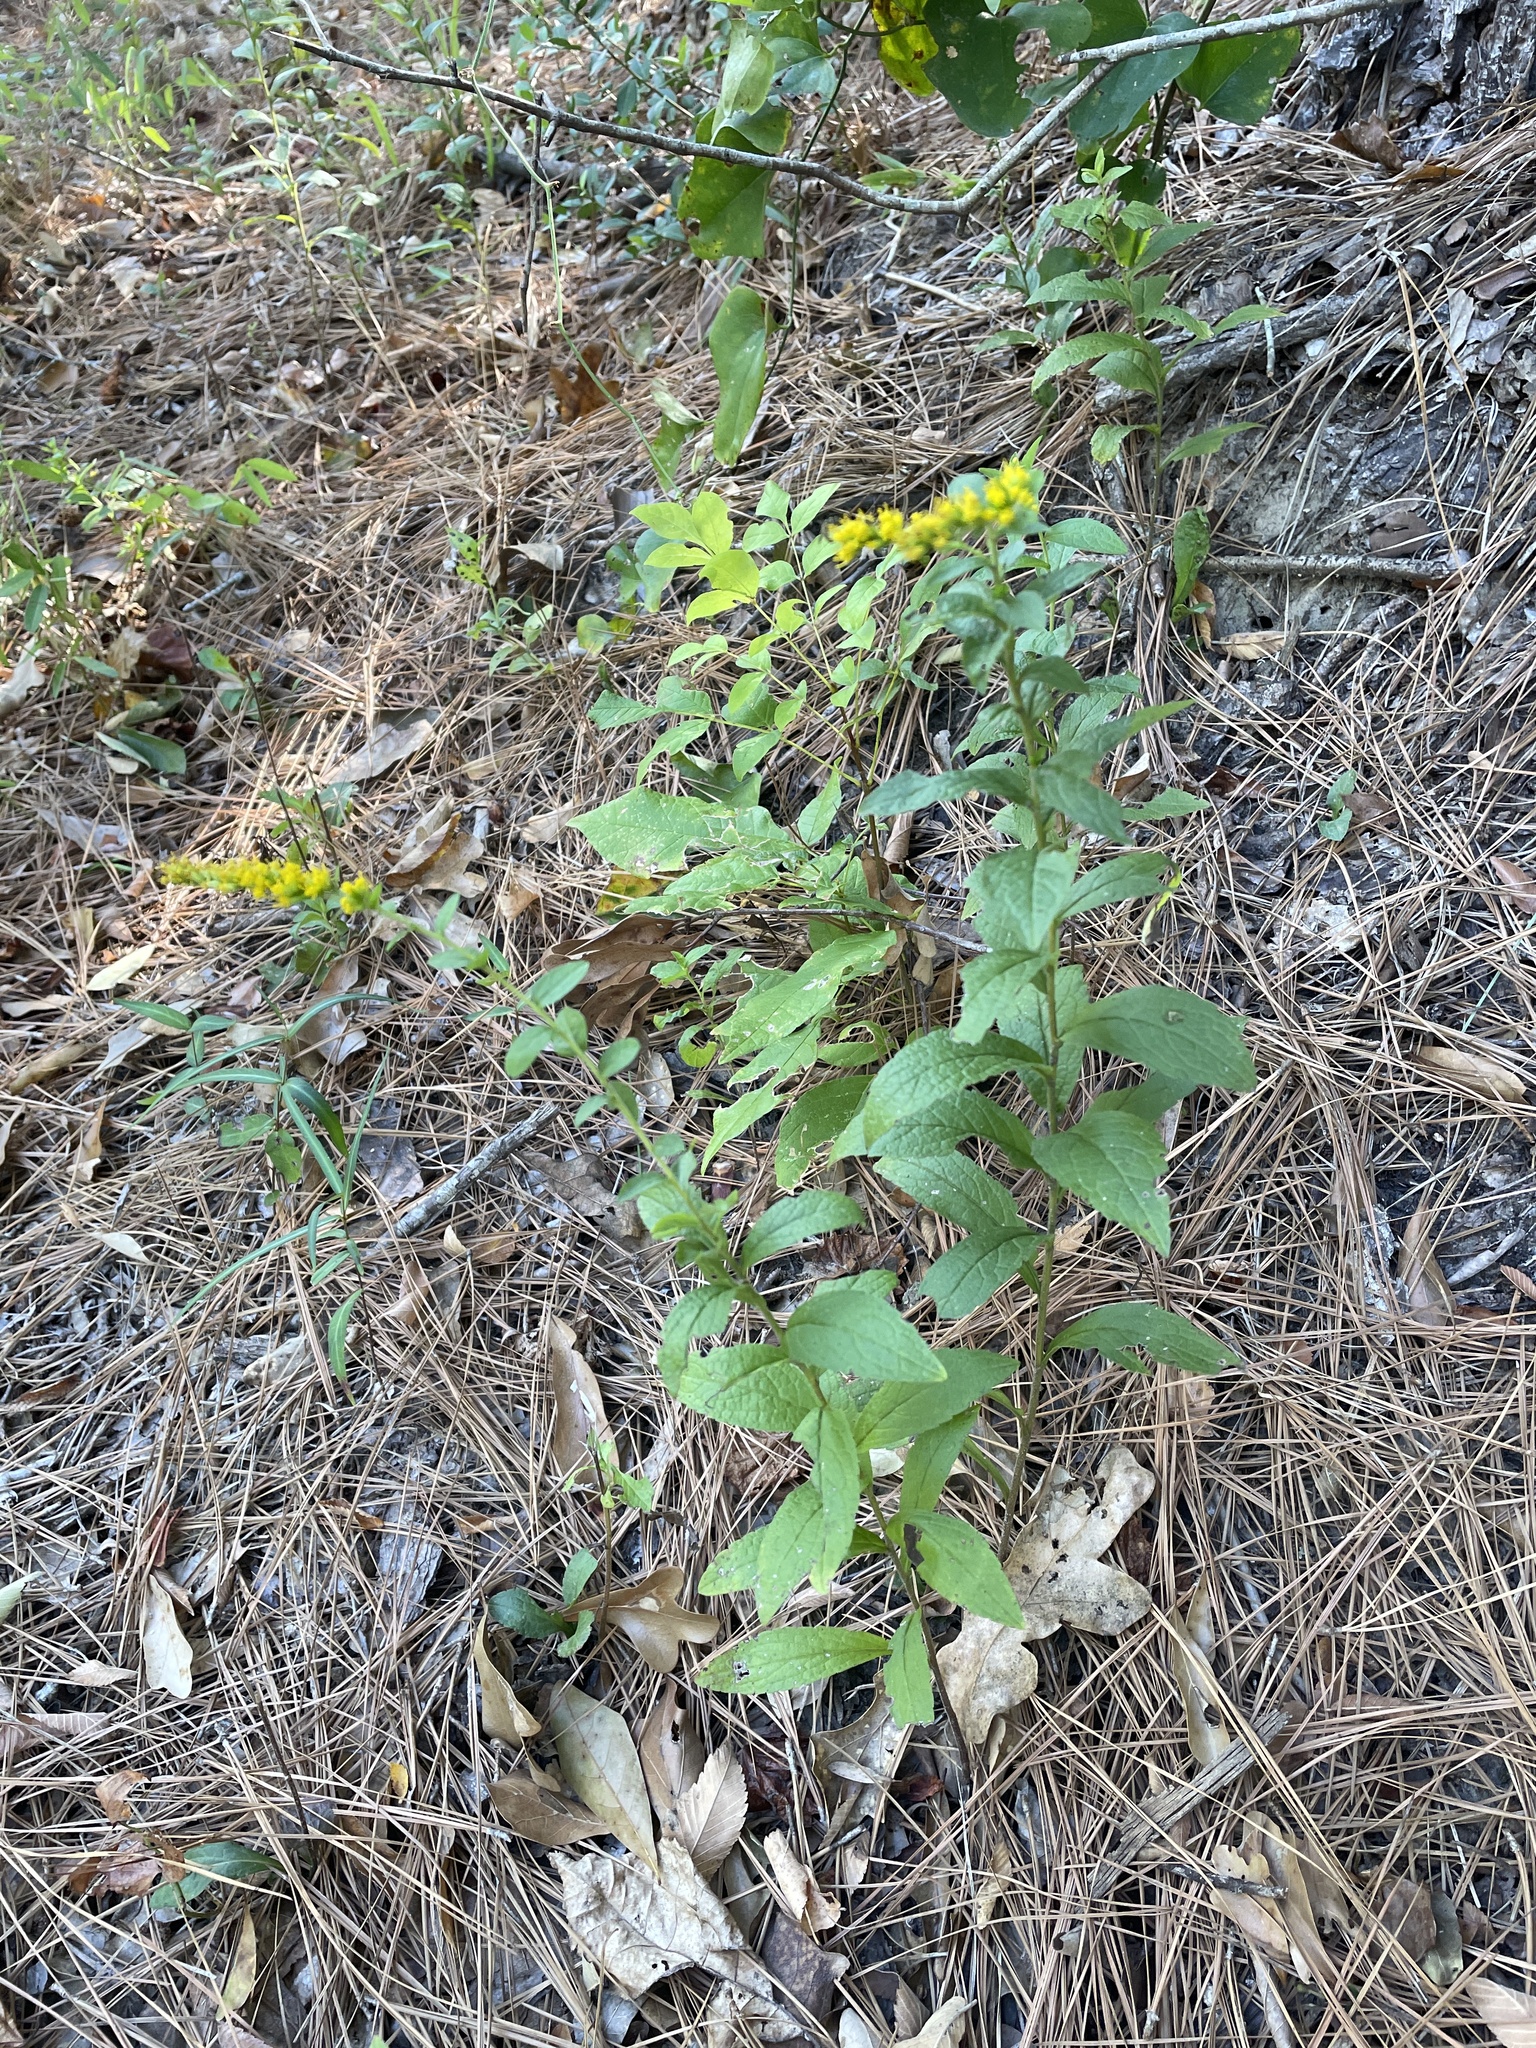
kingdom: Plantae
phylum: Tracheophyta
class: Magnoliopsida
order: Asterales
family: Asteraceae
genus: Solidago
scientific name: Solidago rugosa
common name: Rough-stemmed goldenrod
